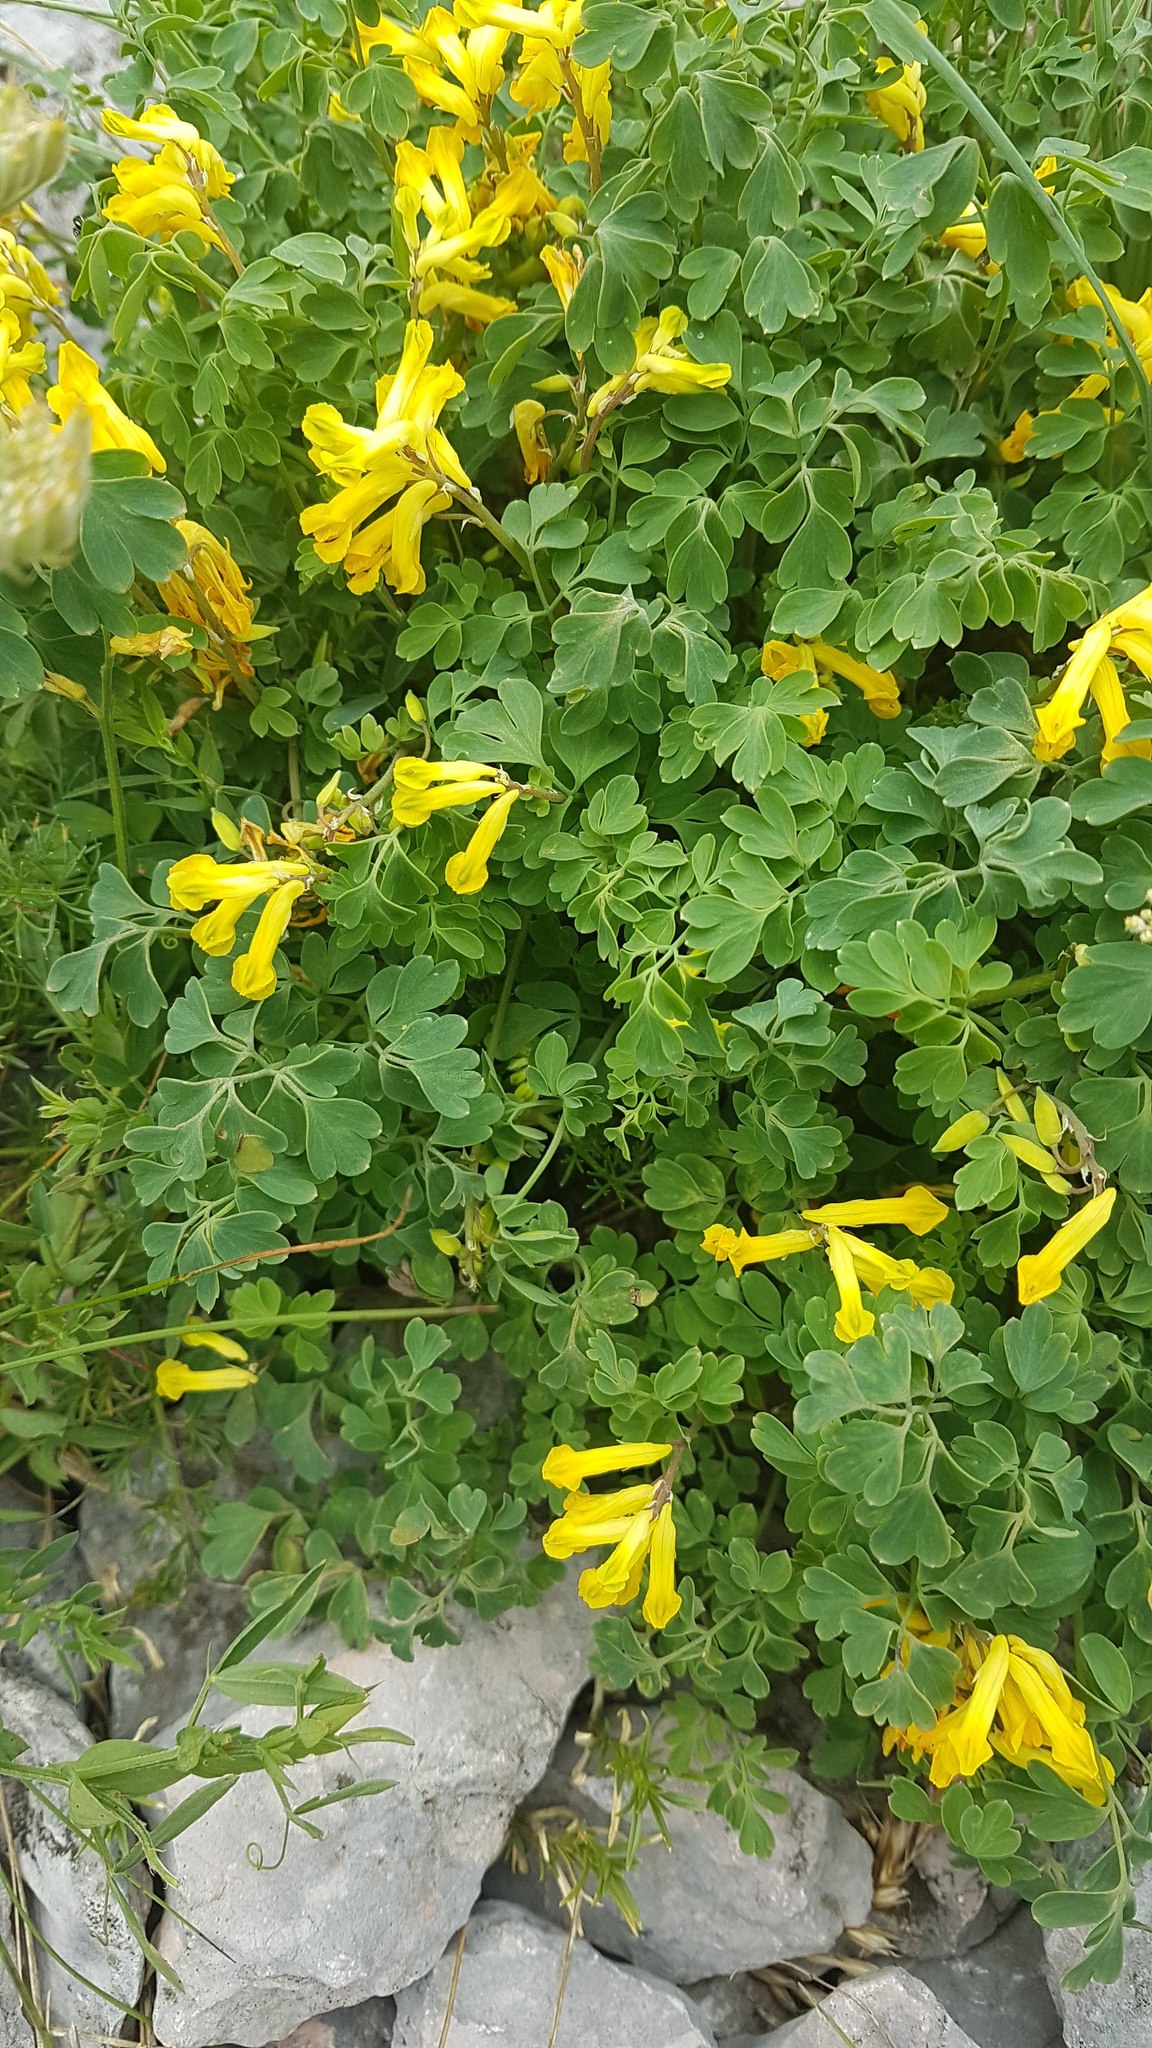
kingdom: Plantae
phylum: Tracheophyta
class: Magnoliopsida
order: Ranunculales
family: Papaveraceae
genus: Pseudofumaria
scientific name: Pseudofumaria lutea
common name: Yellow corydalis
